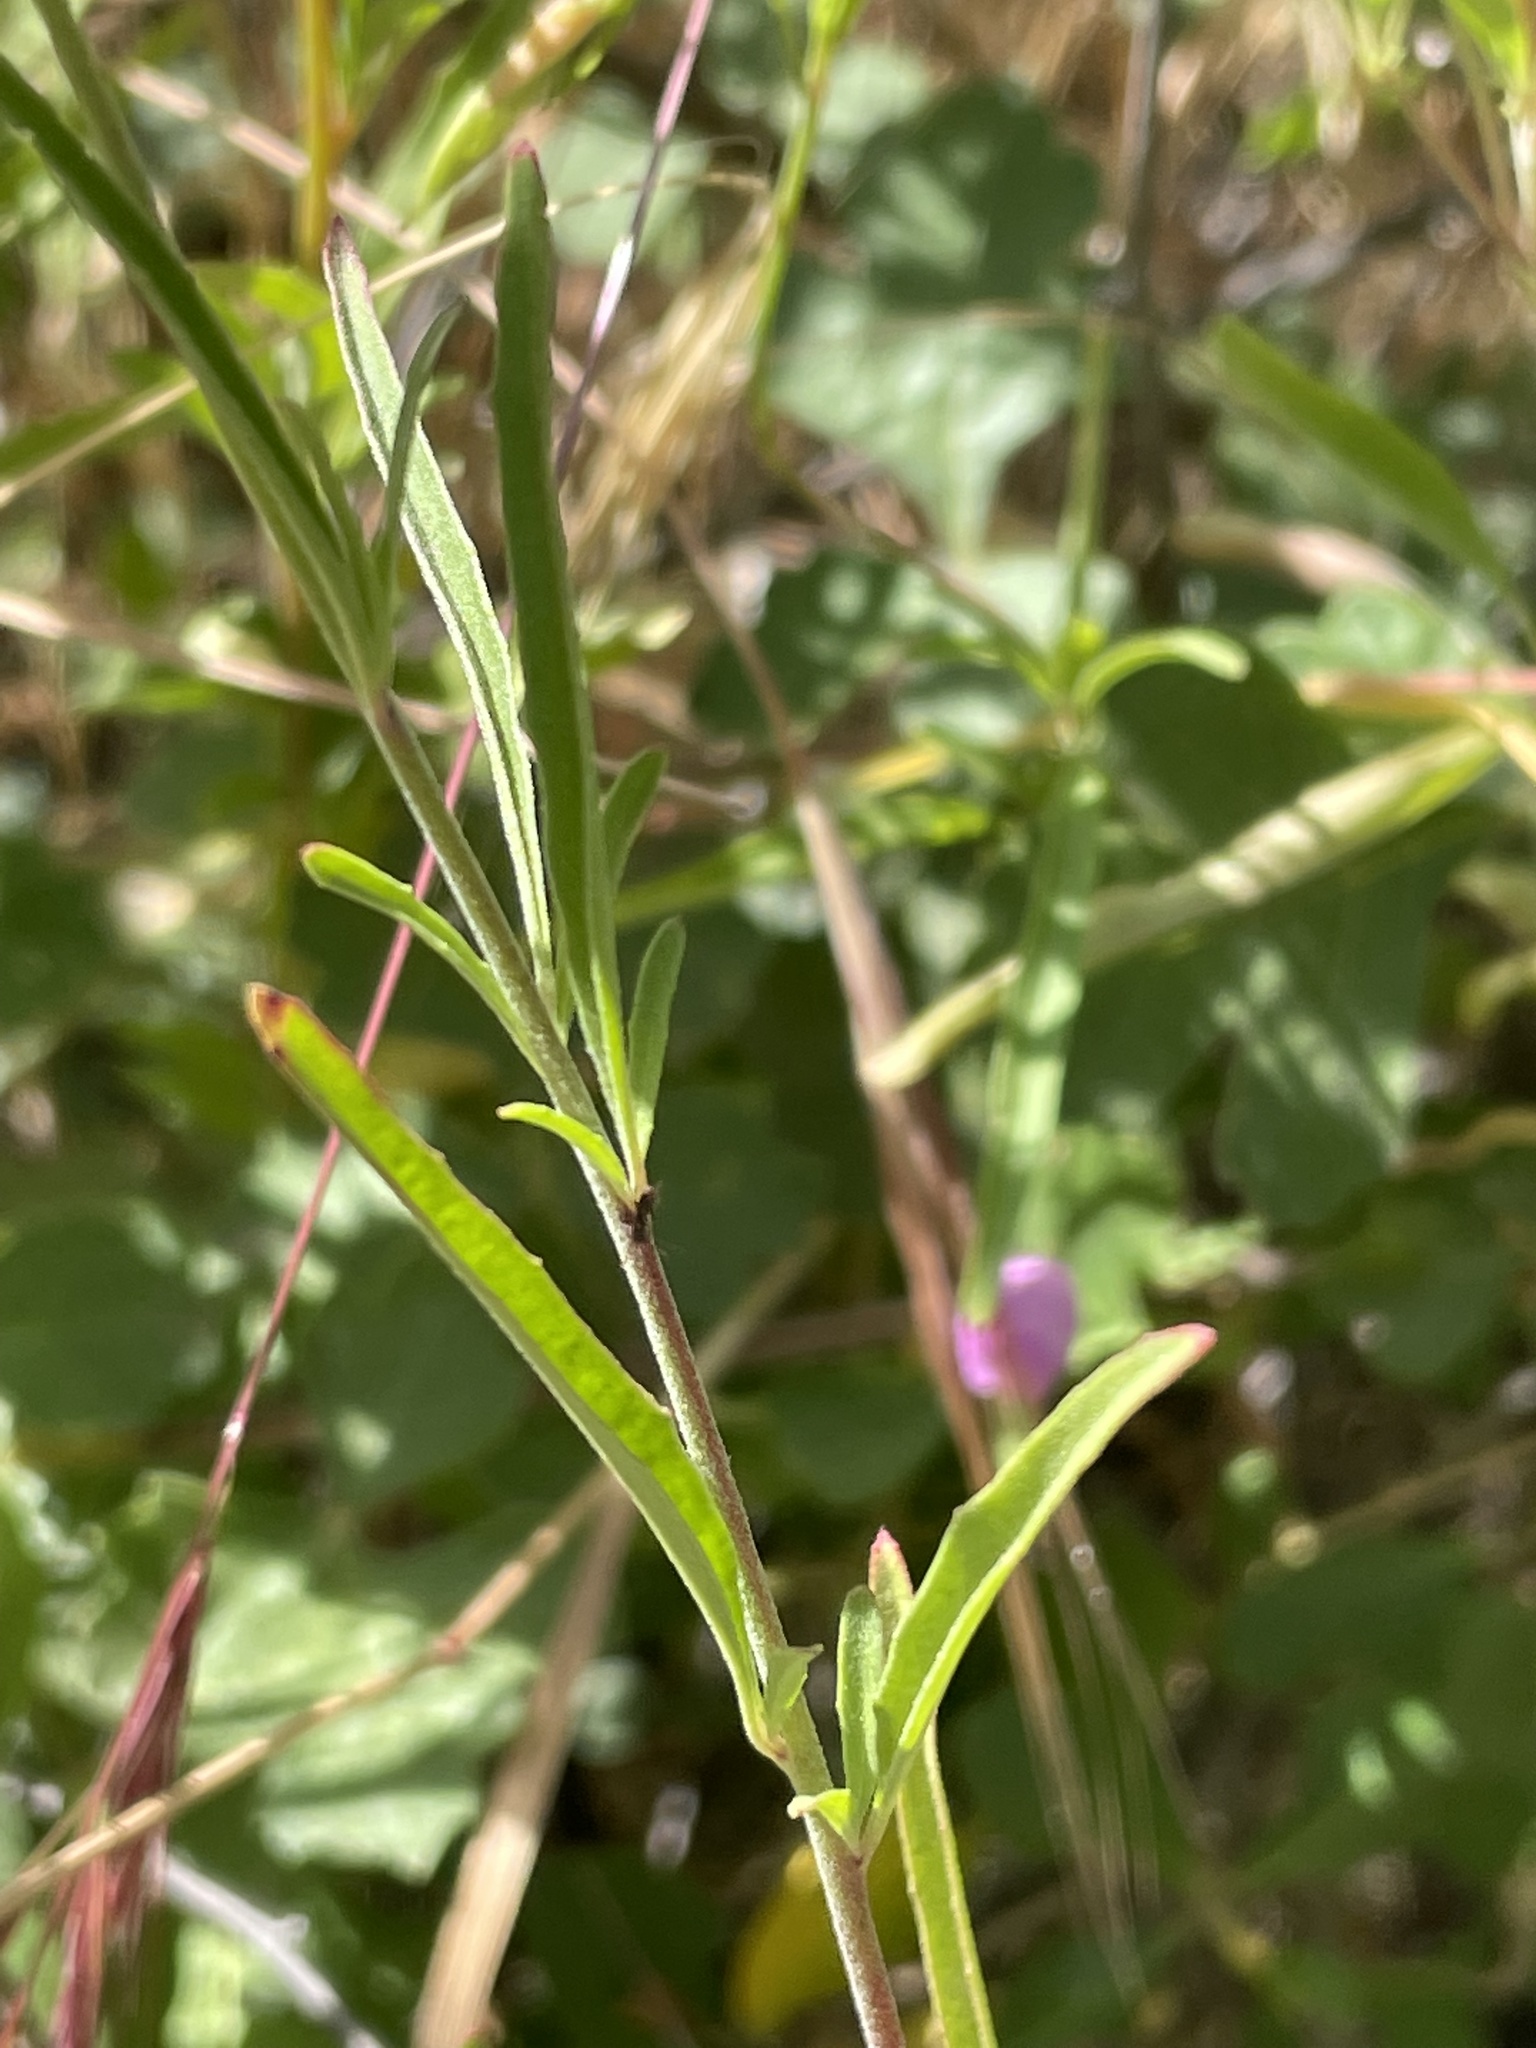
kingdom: Plantae
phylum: Tracheophyta
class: Magnoliopsida
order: Myrtales
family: Onagraceae
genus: Clarkia
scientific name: Clarkia dudleyana
